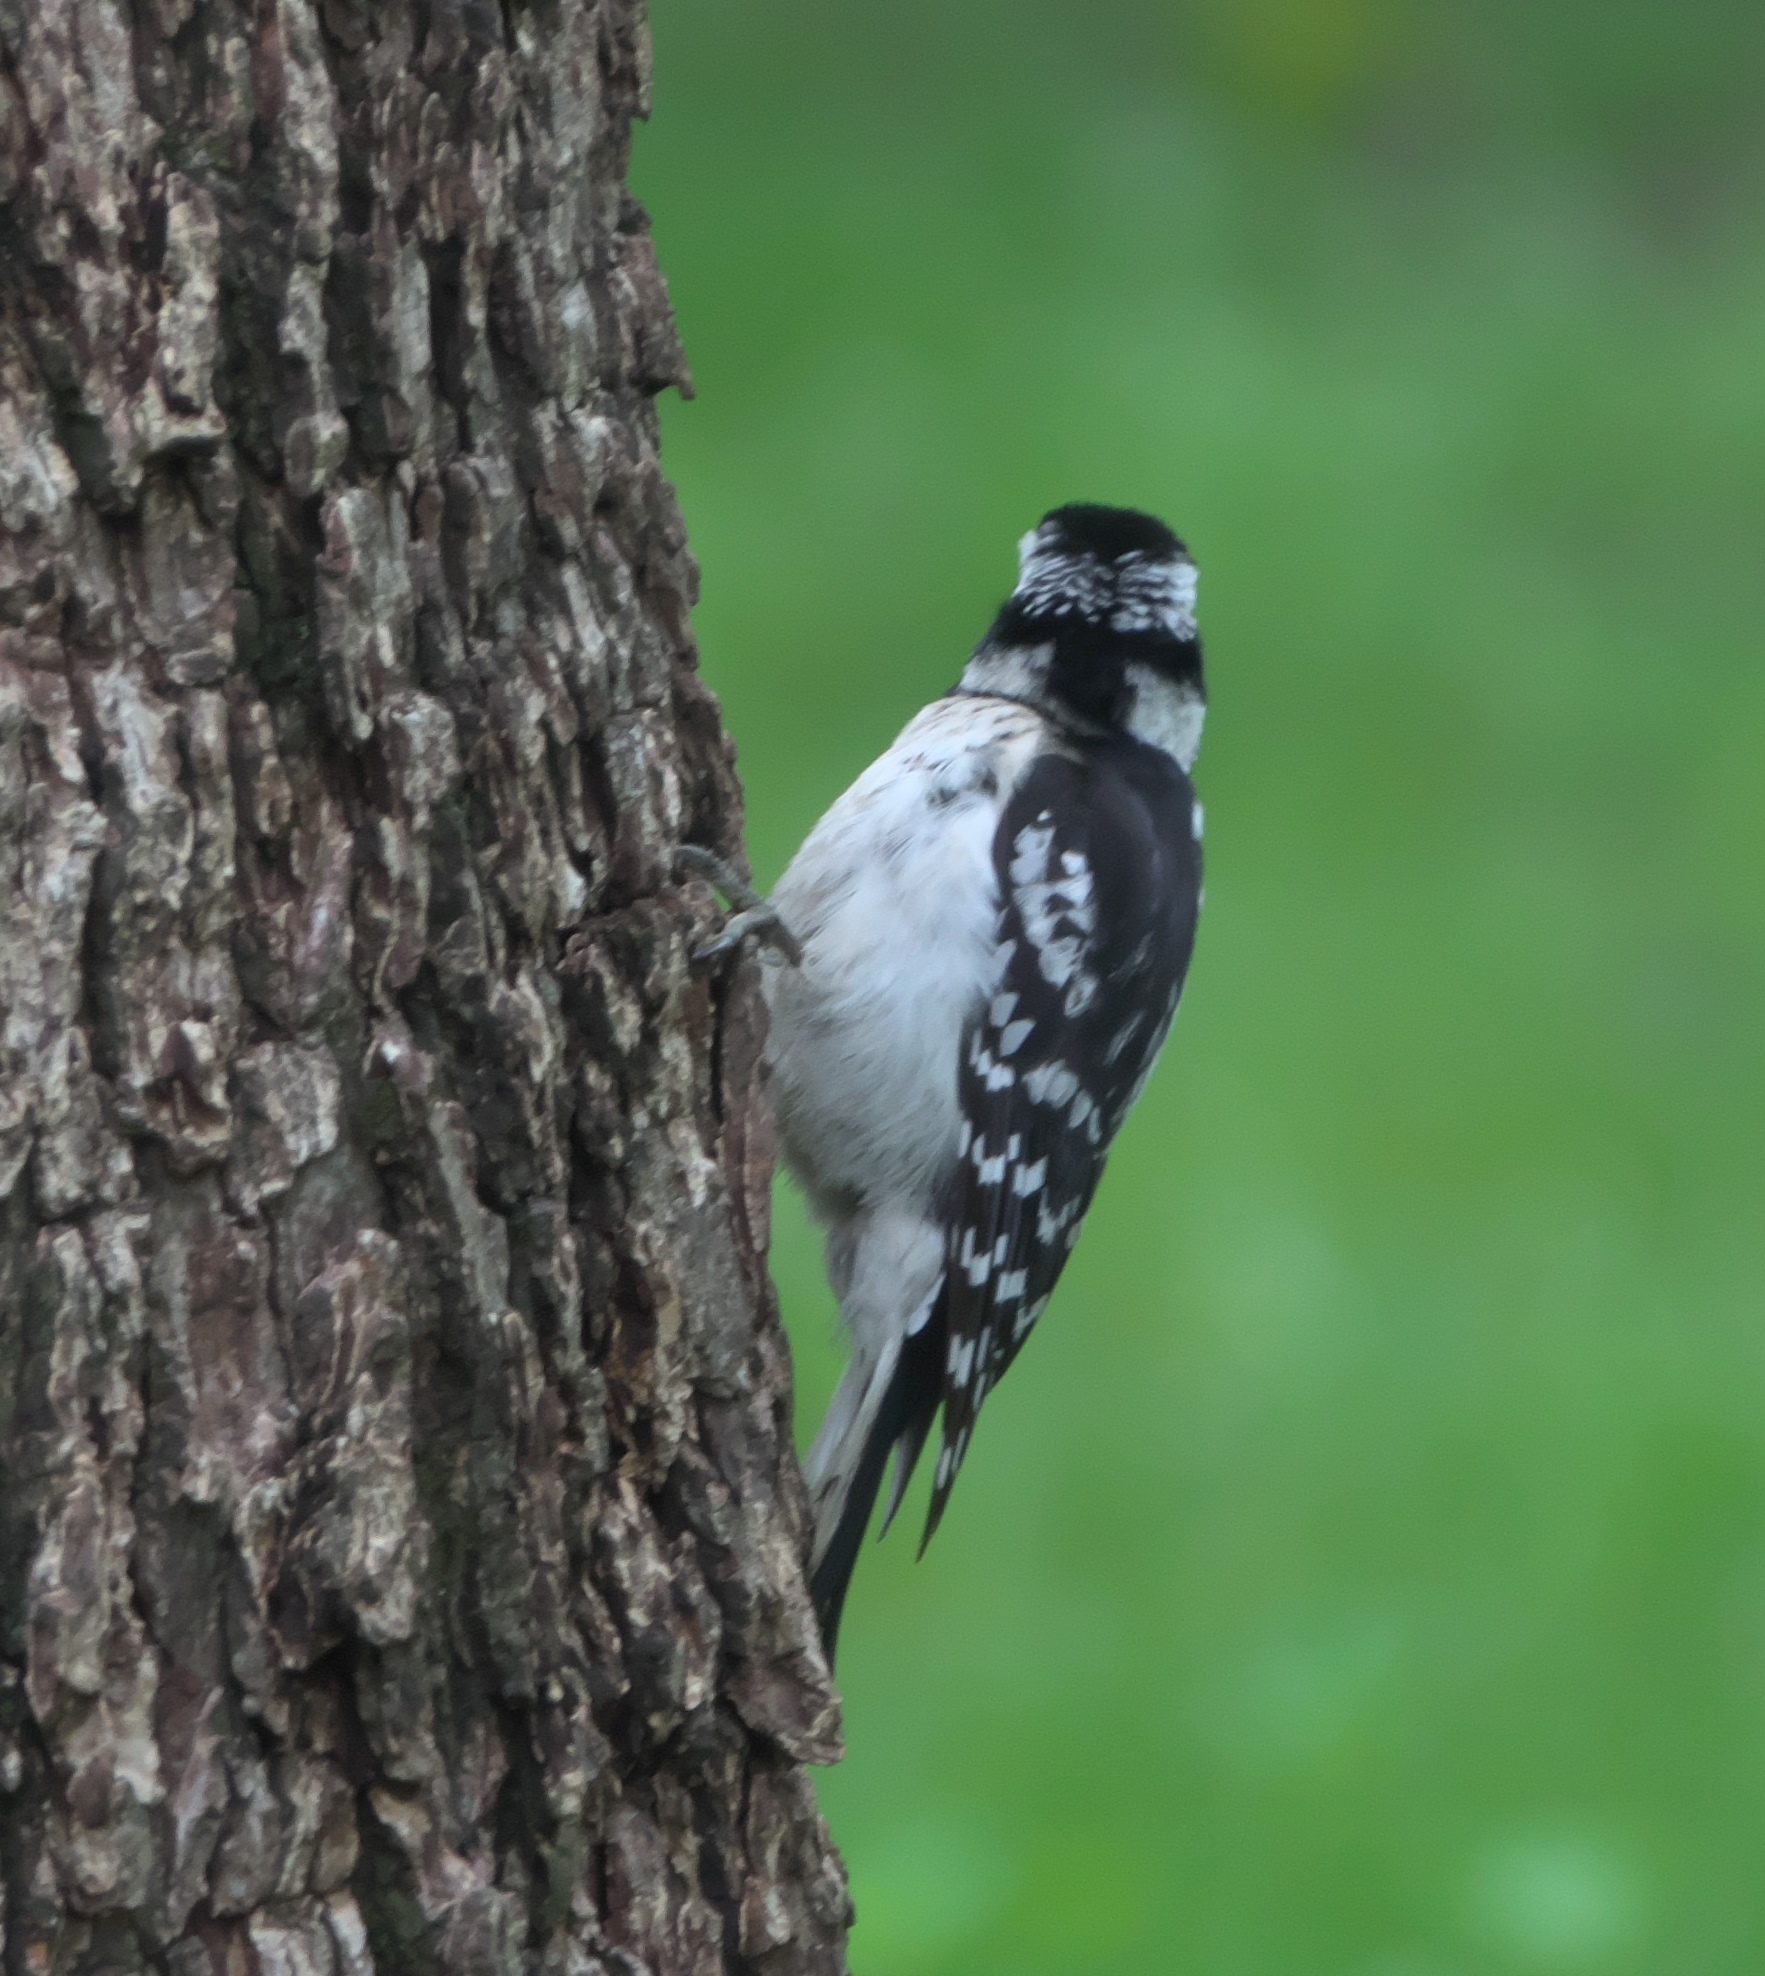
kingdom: Animalia
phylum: Chordata
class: Aves
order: Piciformes
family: Picidae
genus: Dryobates
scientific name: Dryobates pubescens
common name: Downy woodpecker
